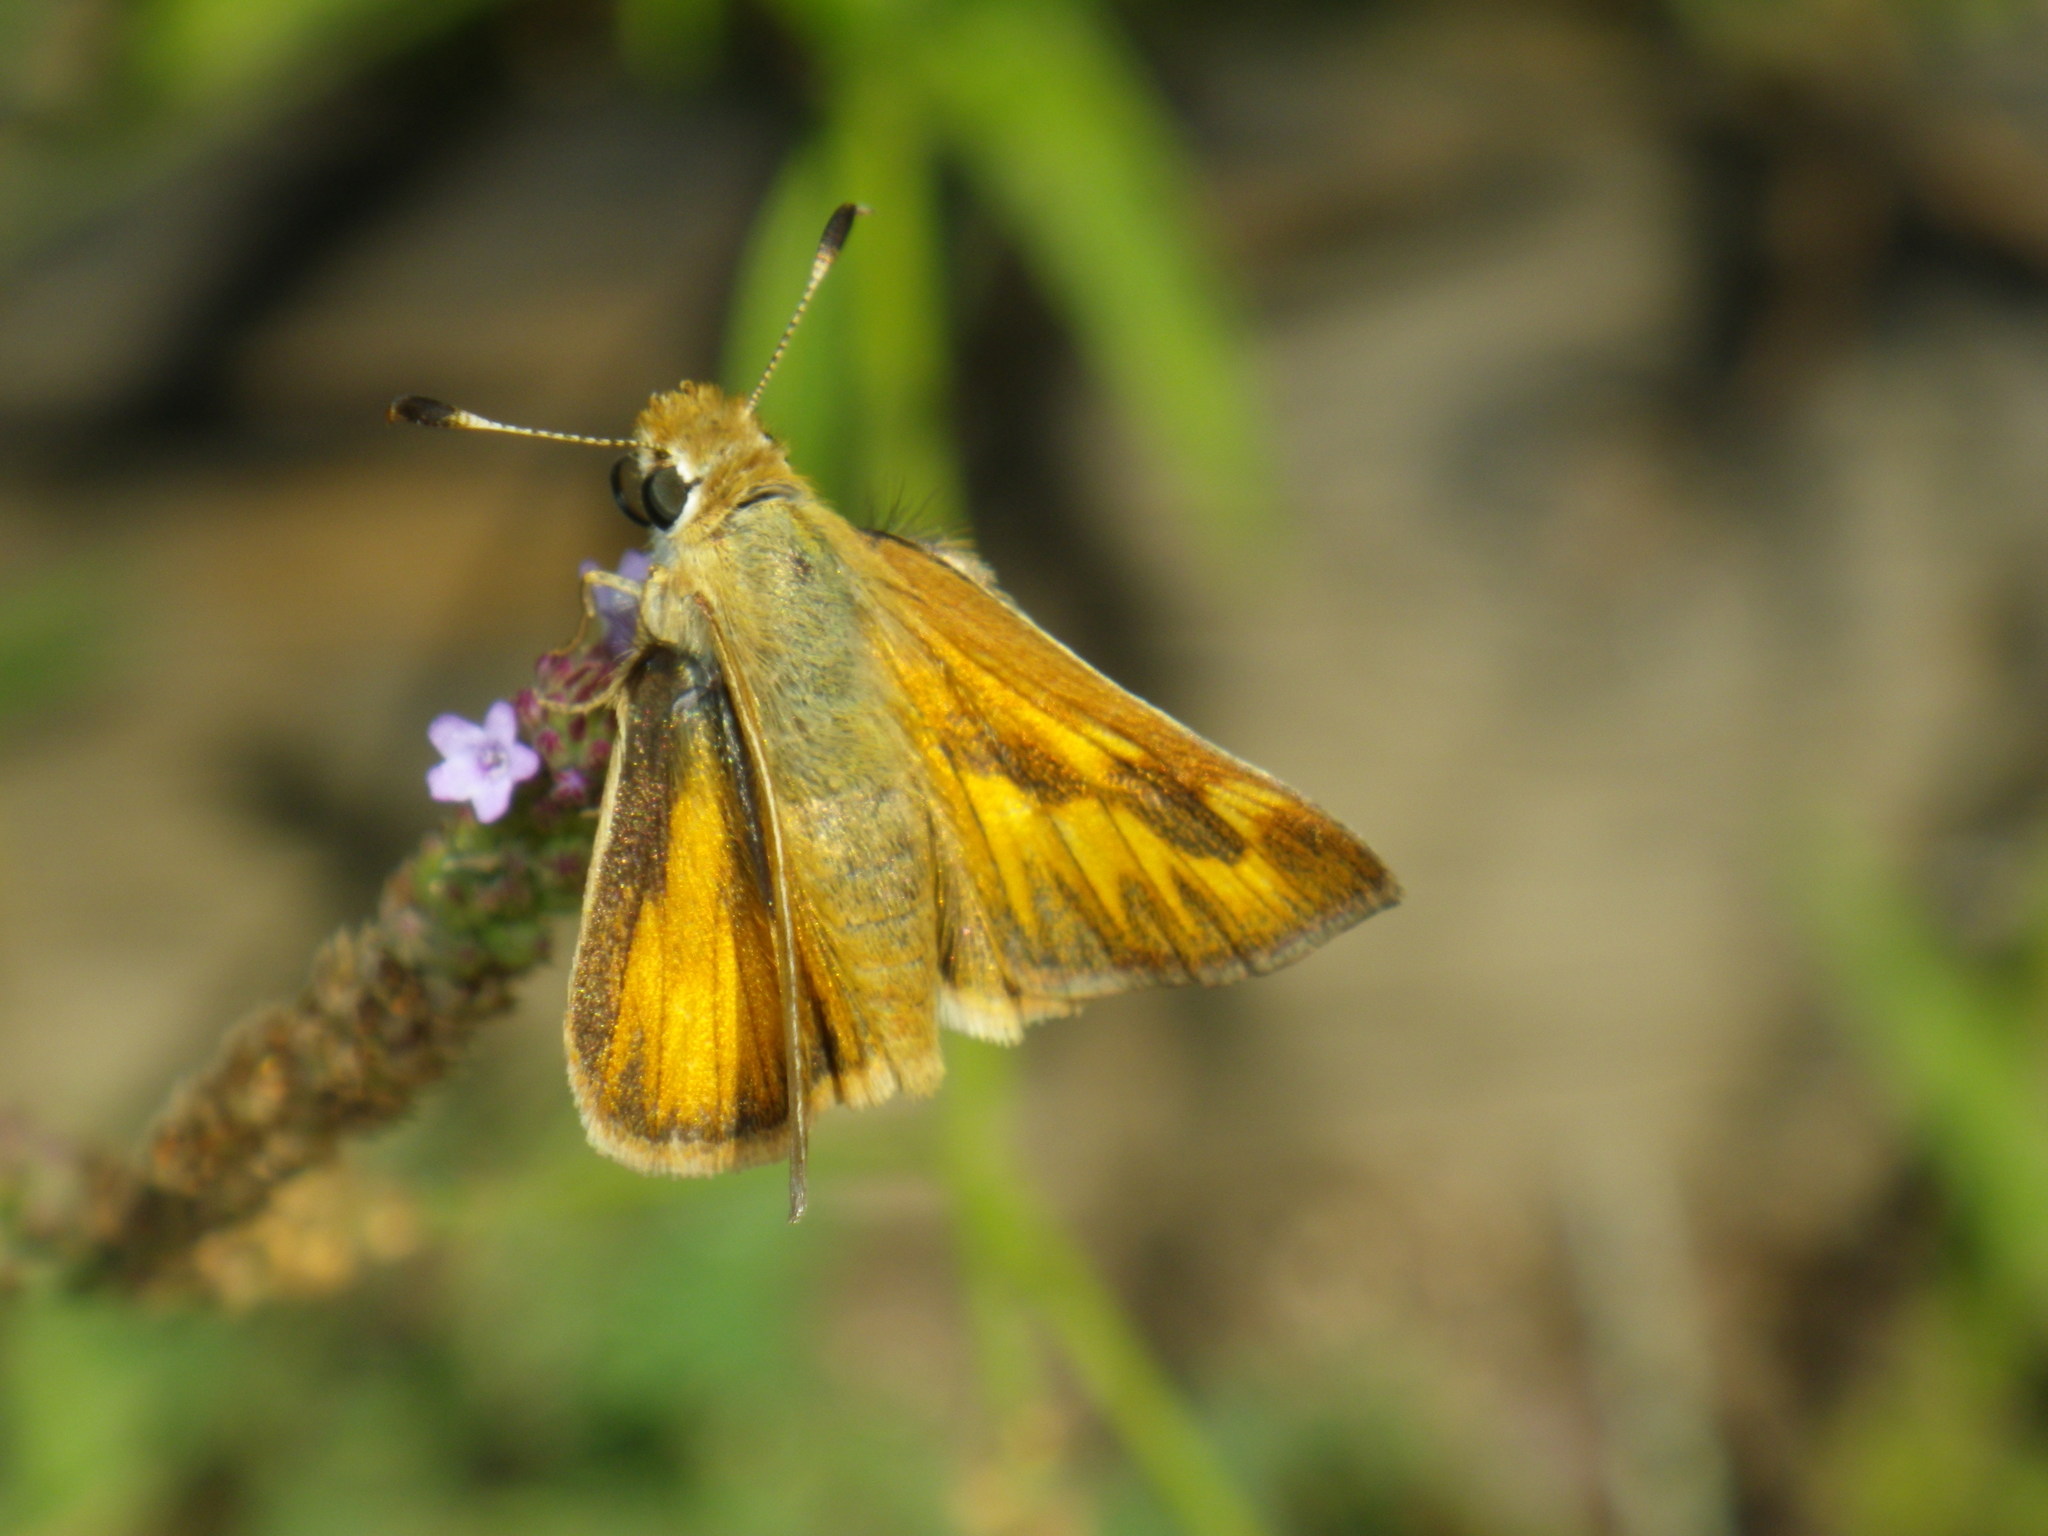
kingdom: Animalia
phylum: Arthropoda
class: Insecta
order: Lepidoptera
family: Hesperiidae
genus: Ochlodes
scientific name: Ochlodes sylvanoides
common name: Woodland skipper
